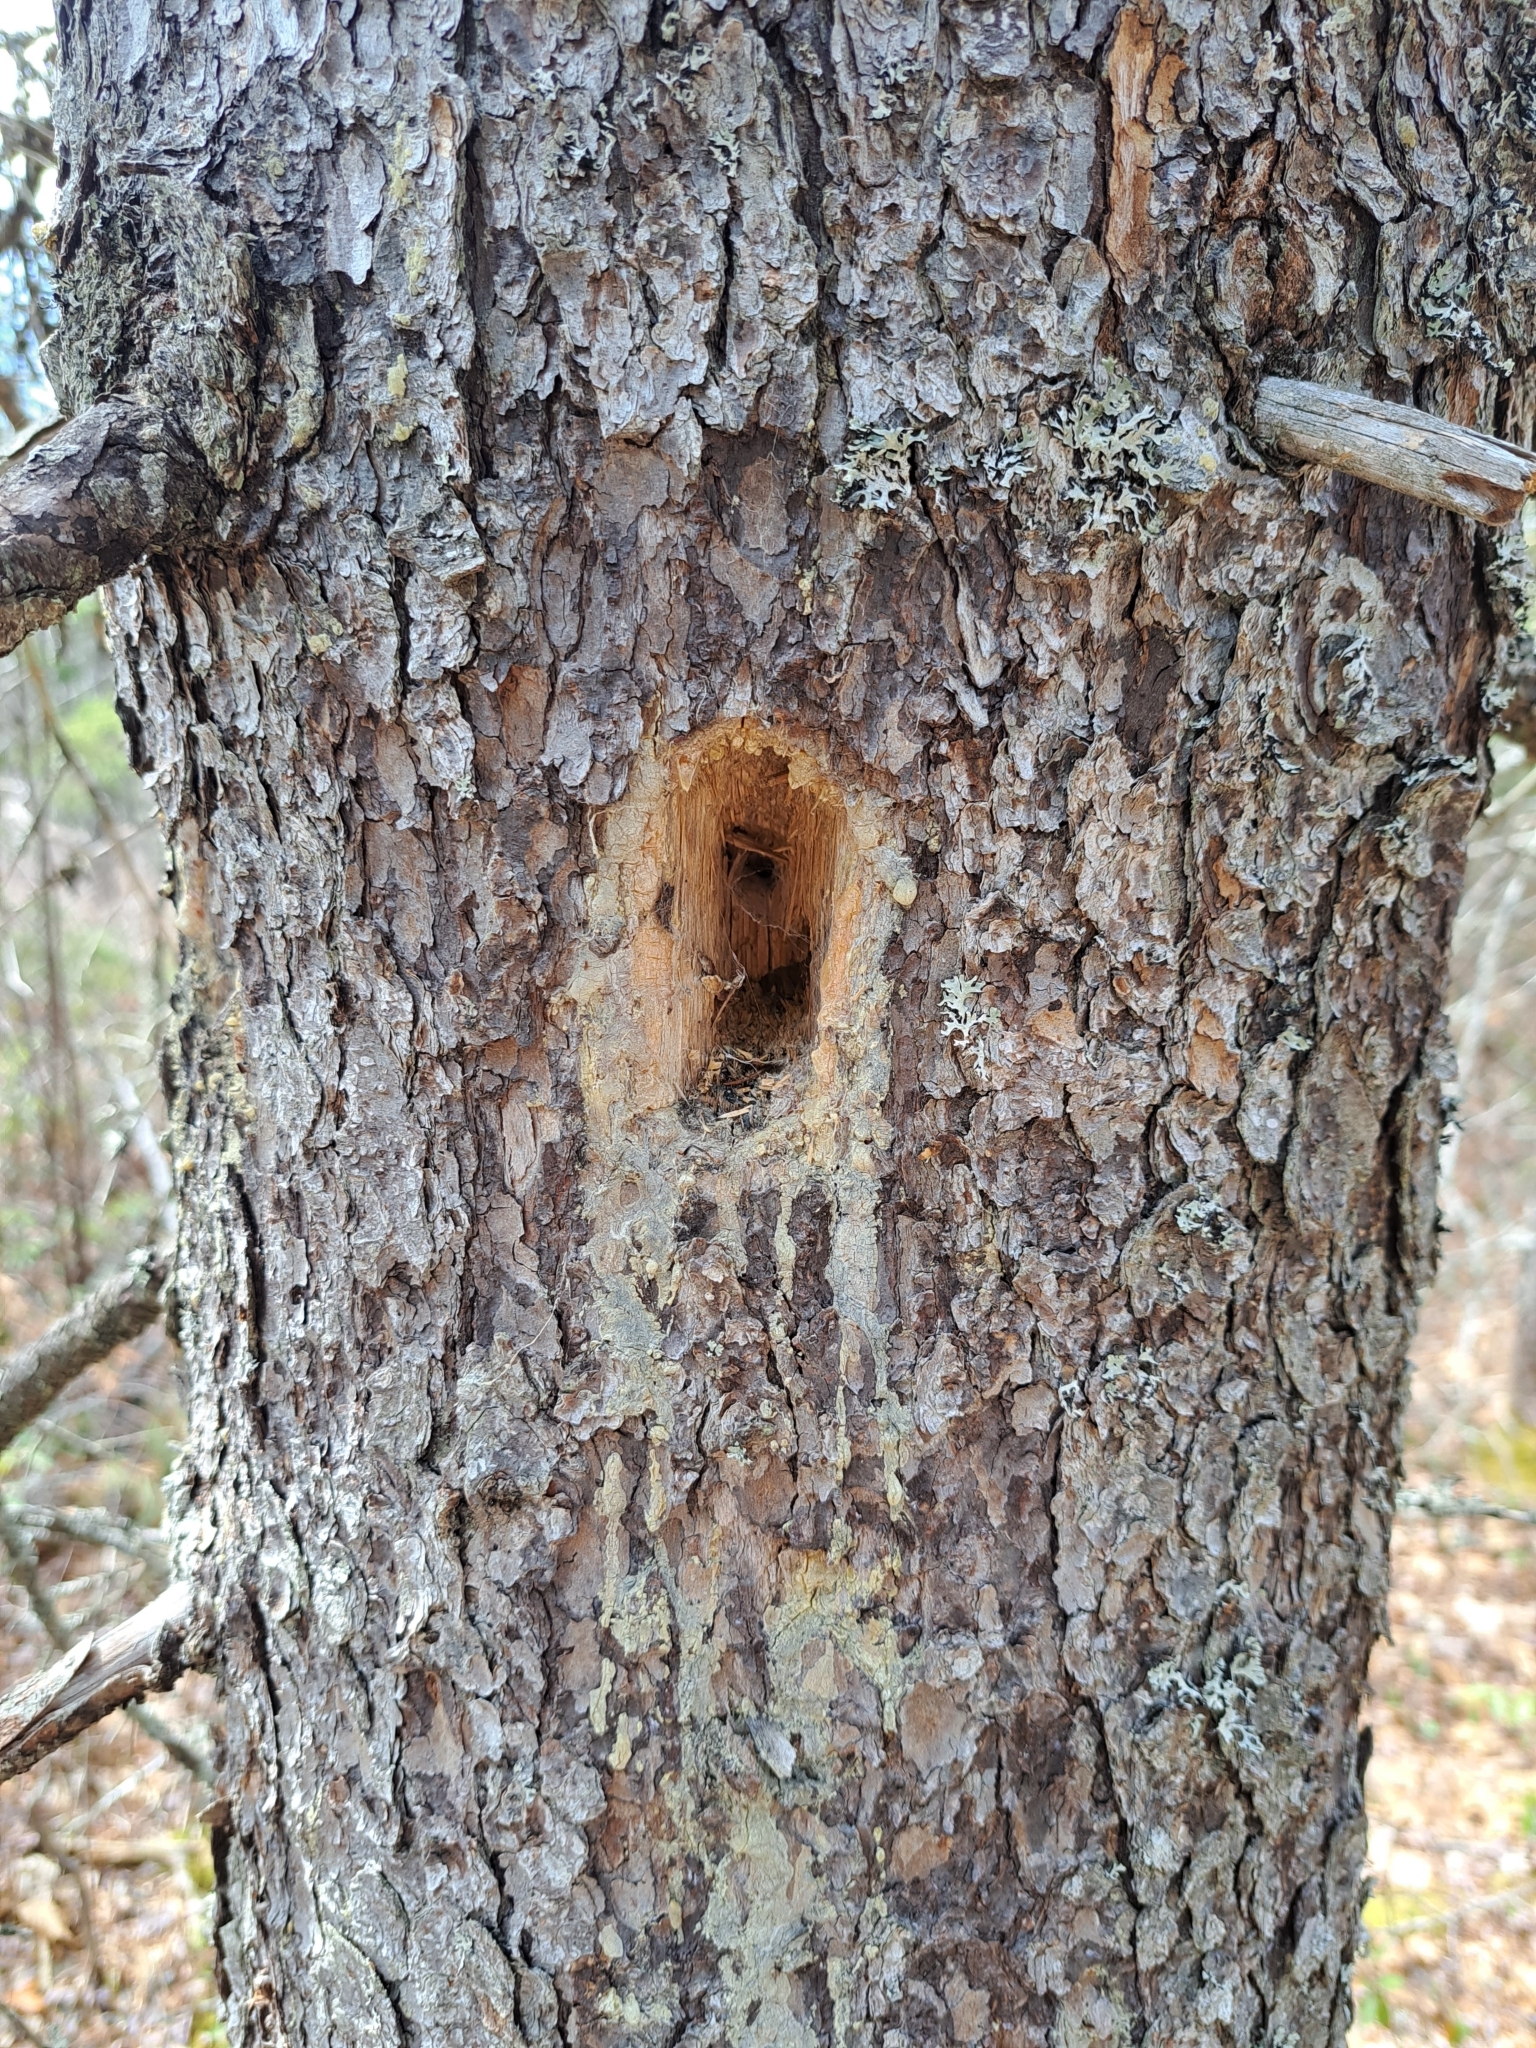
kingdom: Animalia
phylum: Chordata
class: Aves
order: Piciformes
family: Picidae
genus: Dryocopus
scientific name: Dryocopus pileatus
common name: Pileated woodpecker
